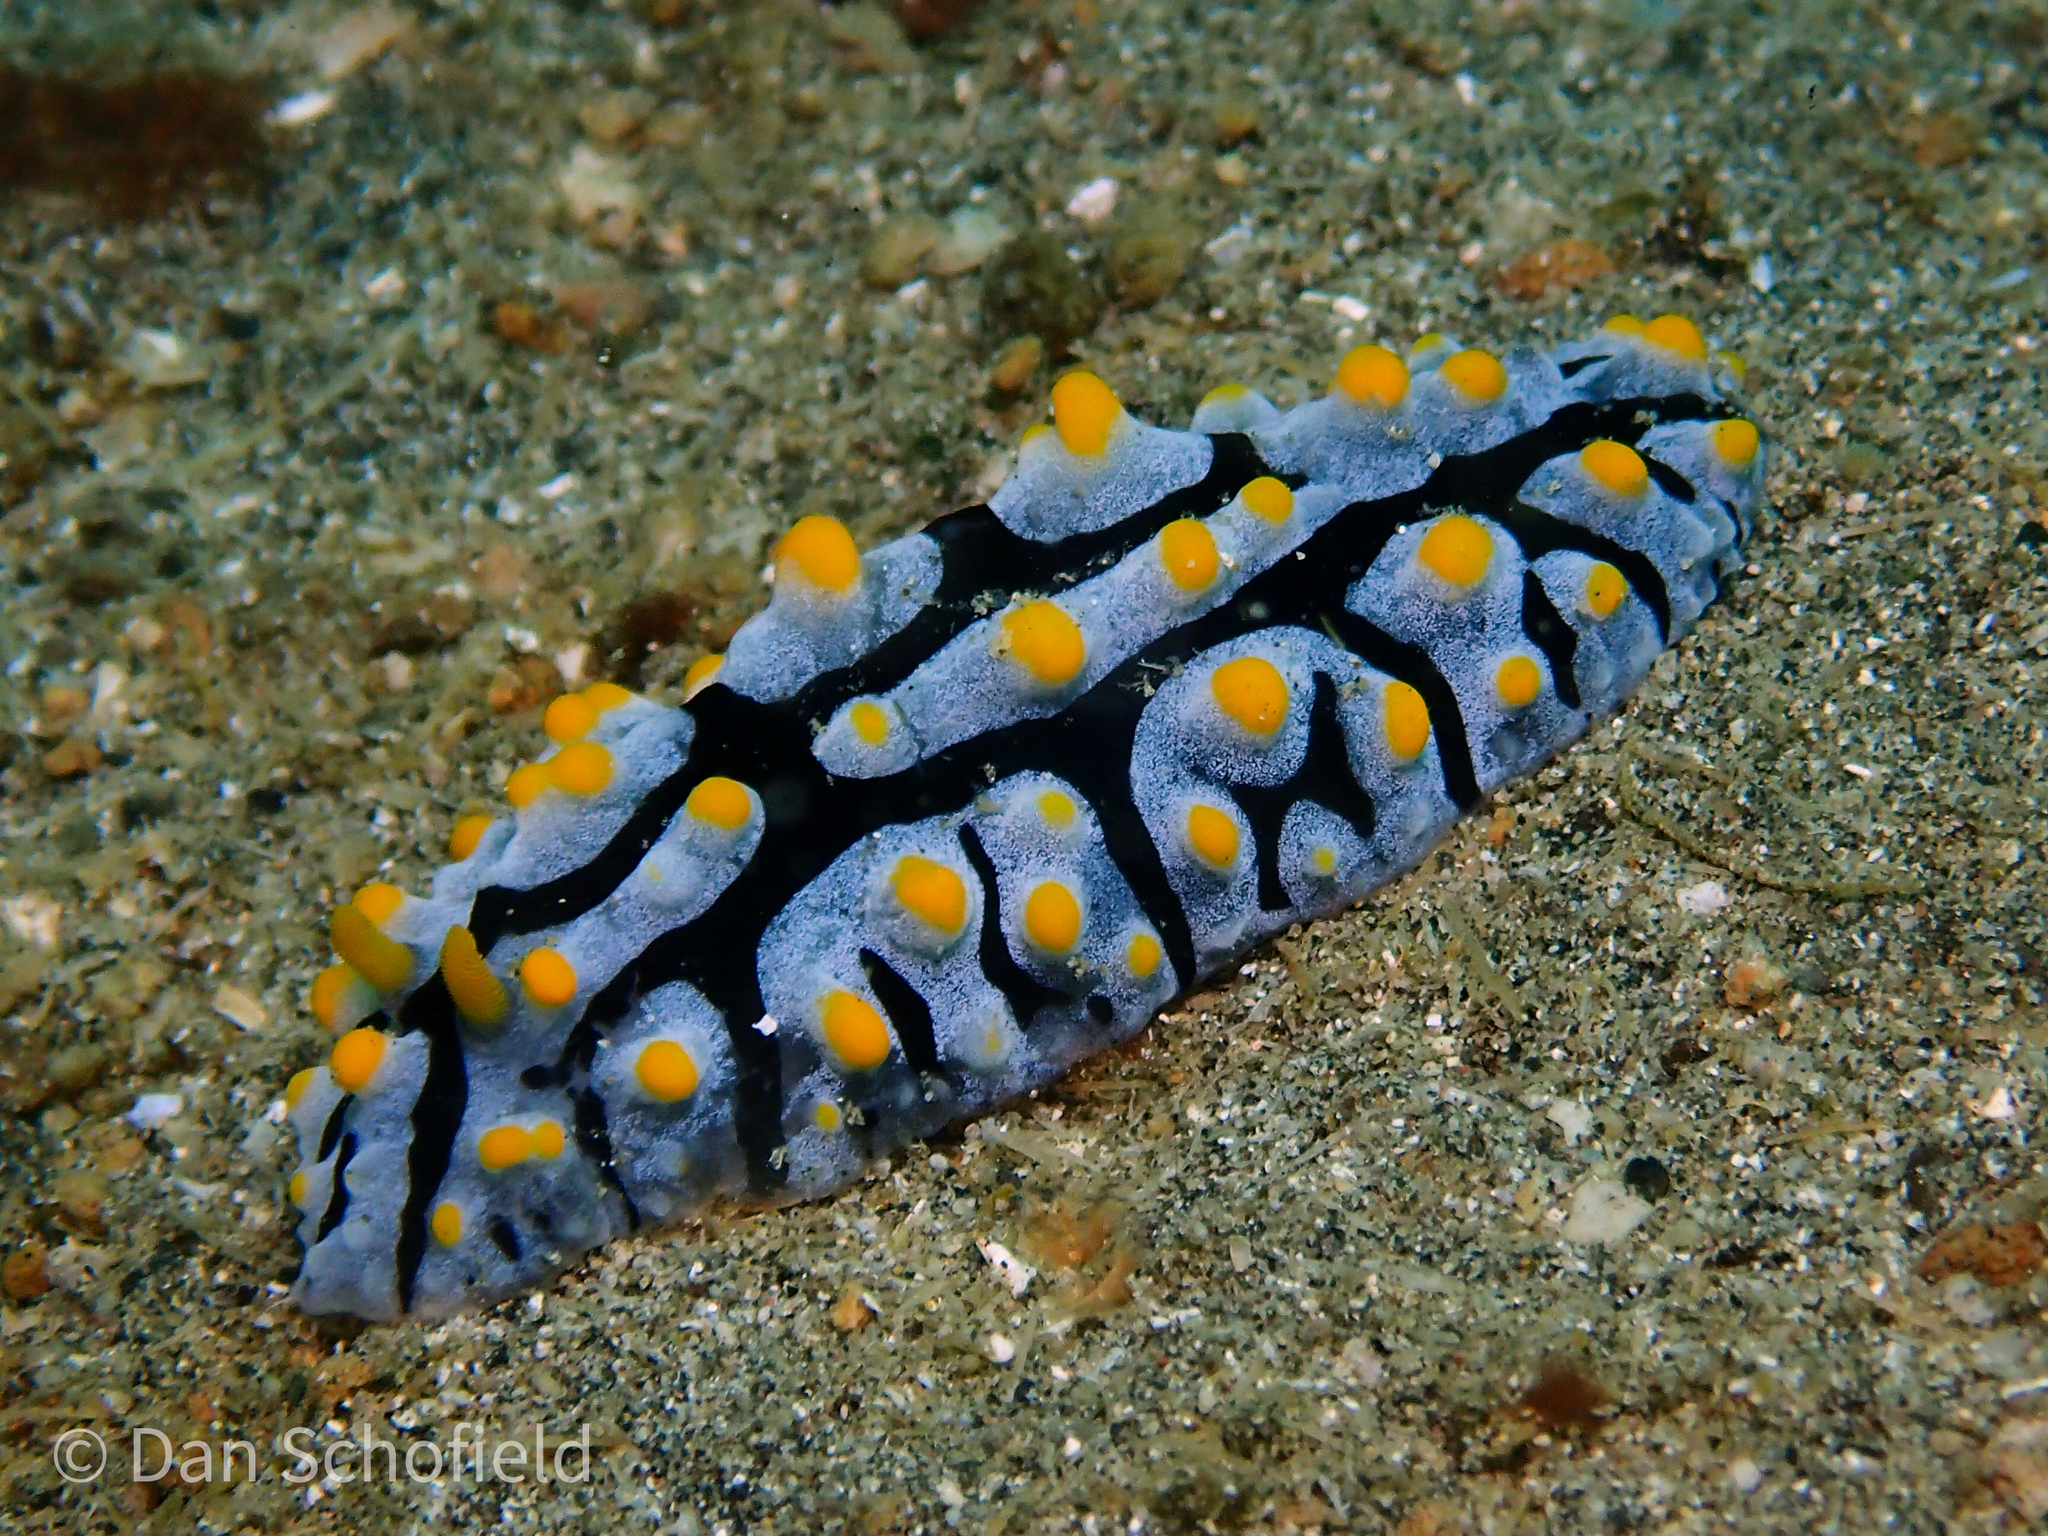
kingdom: Animalia
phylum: Mollusca
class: Gastropoda
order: Nudibranchia
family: Phyllidiidae
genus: Phyllidia
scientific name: Phyllidia varicosa
